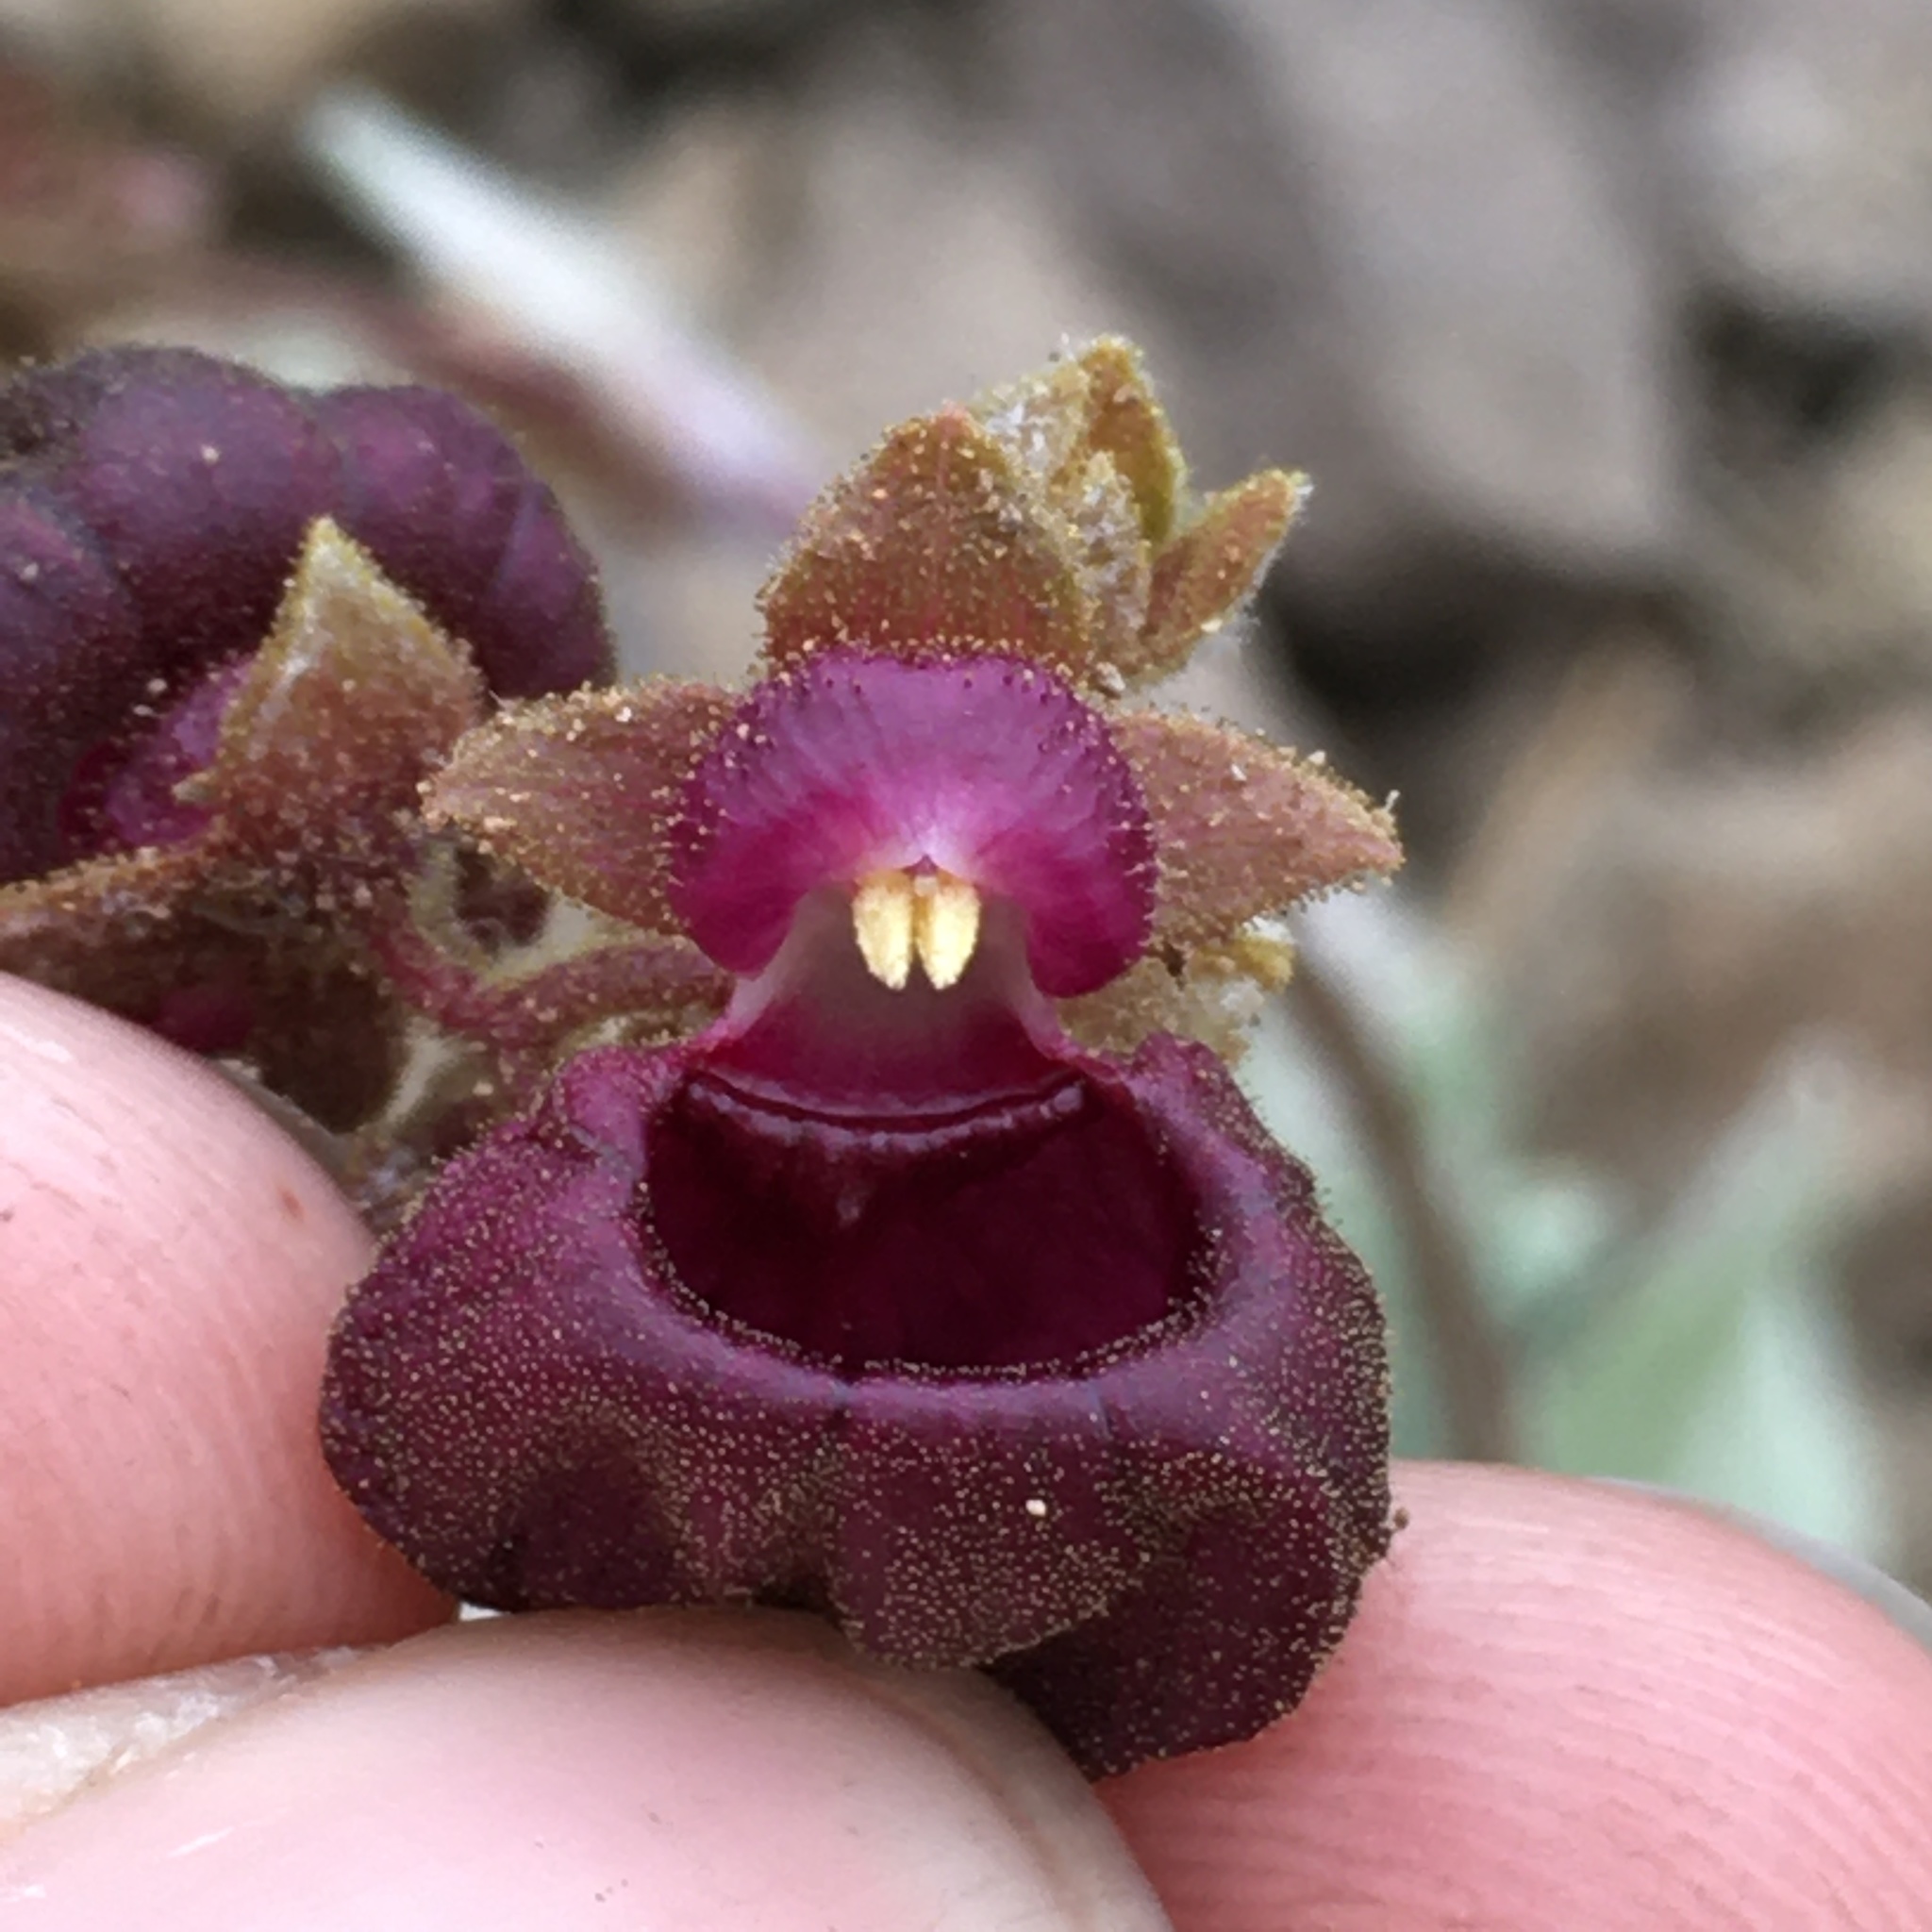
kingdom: Plantae
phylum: Tracheophyta
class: Magnoliopsida
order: Lamiales
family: Calceolariaceae
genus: Calceolaria
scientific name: Calceolaria arachnoidea
